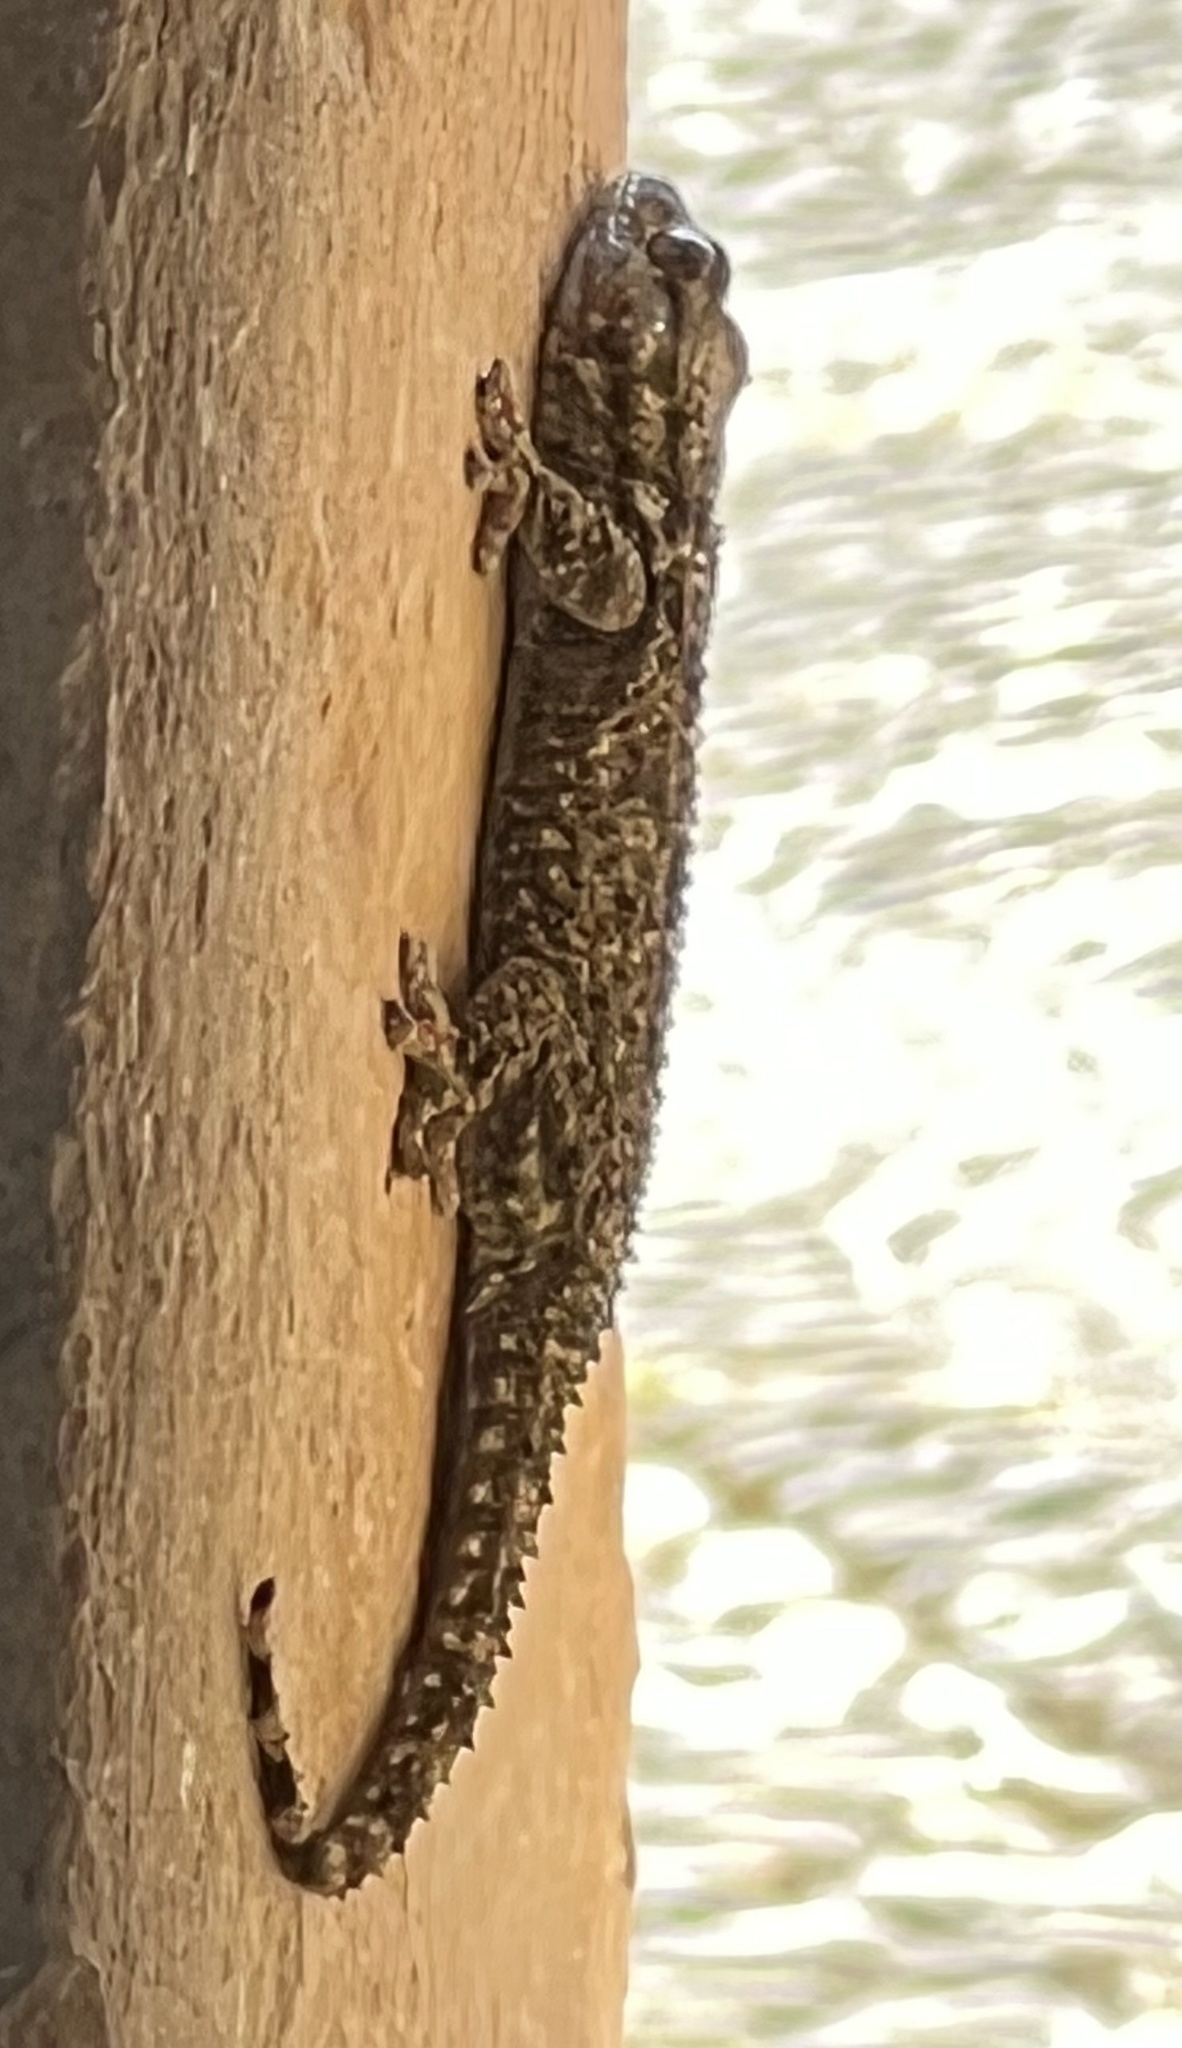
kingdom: Animalia
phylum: Chordata
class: Squamata
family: Phyllodactylidae
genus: Tarentola
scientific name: Tarentola mauritanica
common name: Moorish gecko
